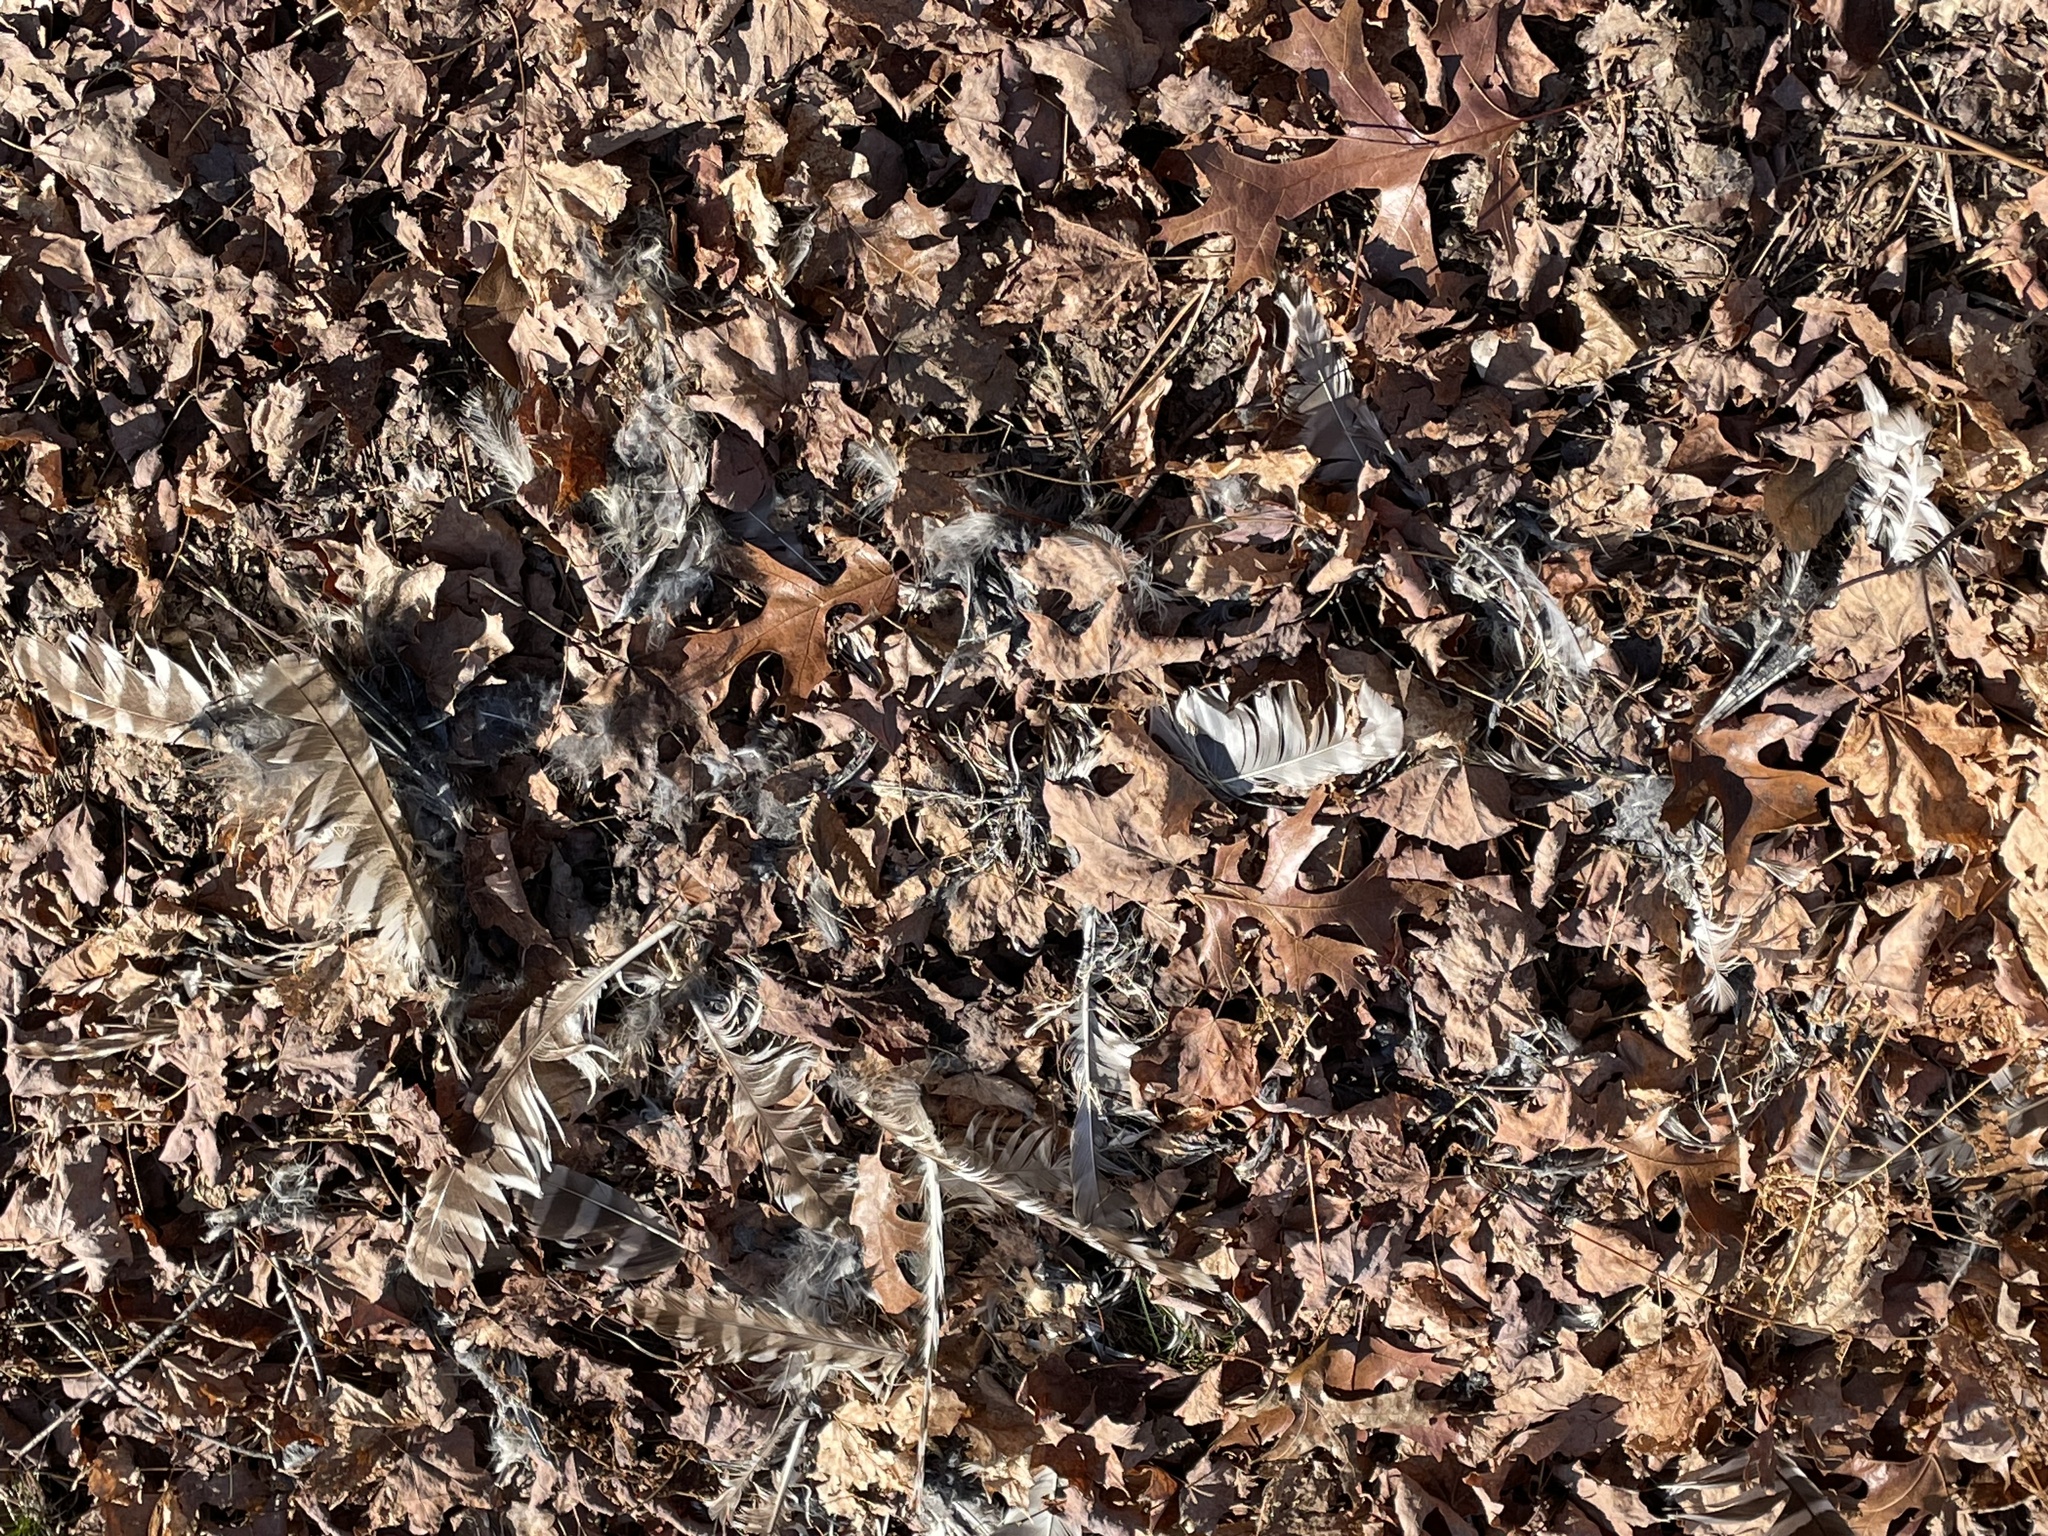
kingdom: Animalia
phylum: Chordata
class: Aves
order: Strigiformes
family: Strigidae
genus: Strix
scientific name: Strix varia
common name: Barred owl
